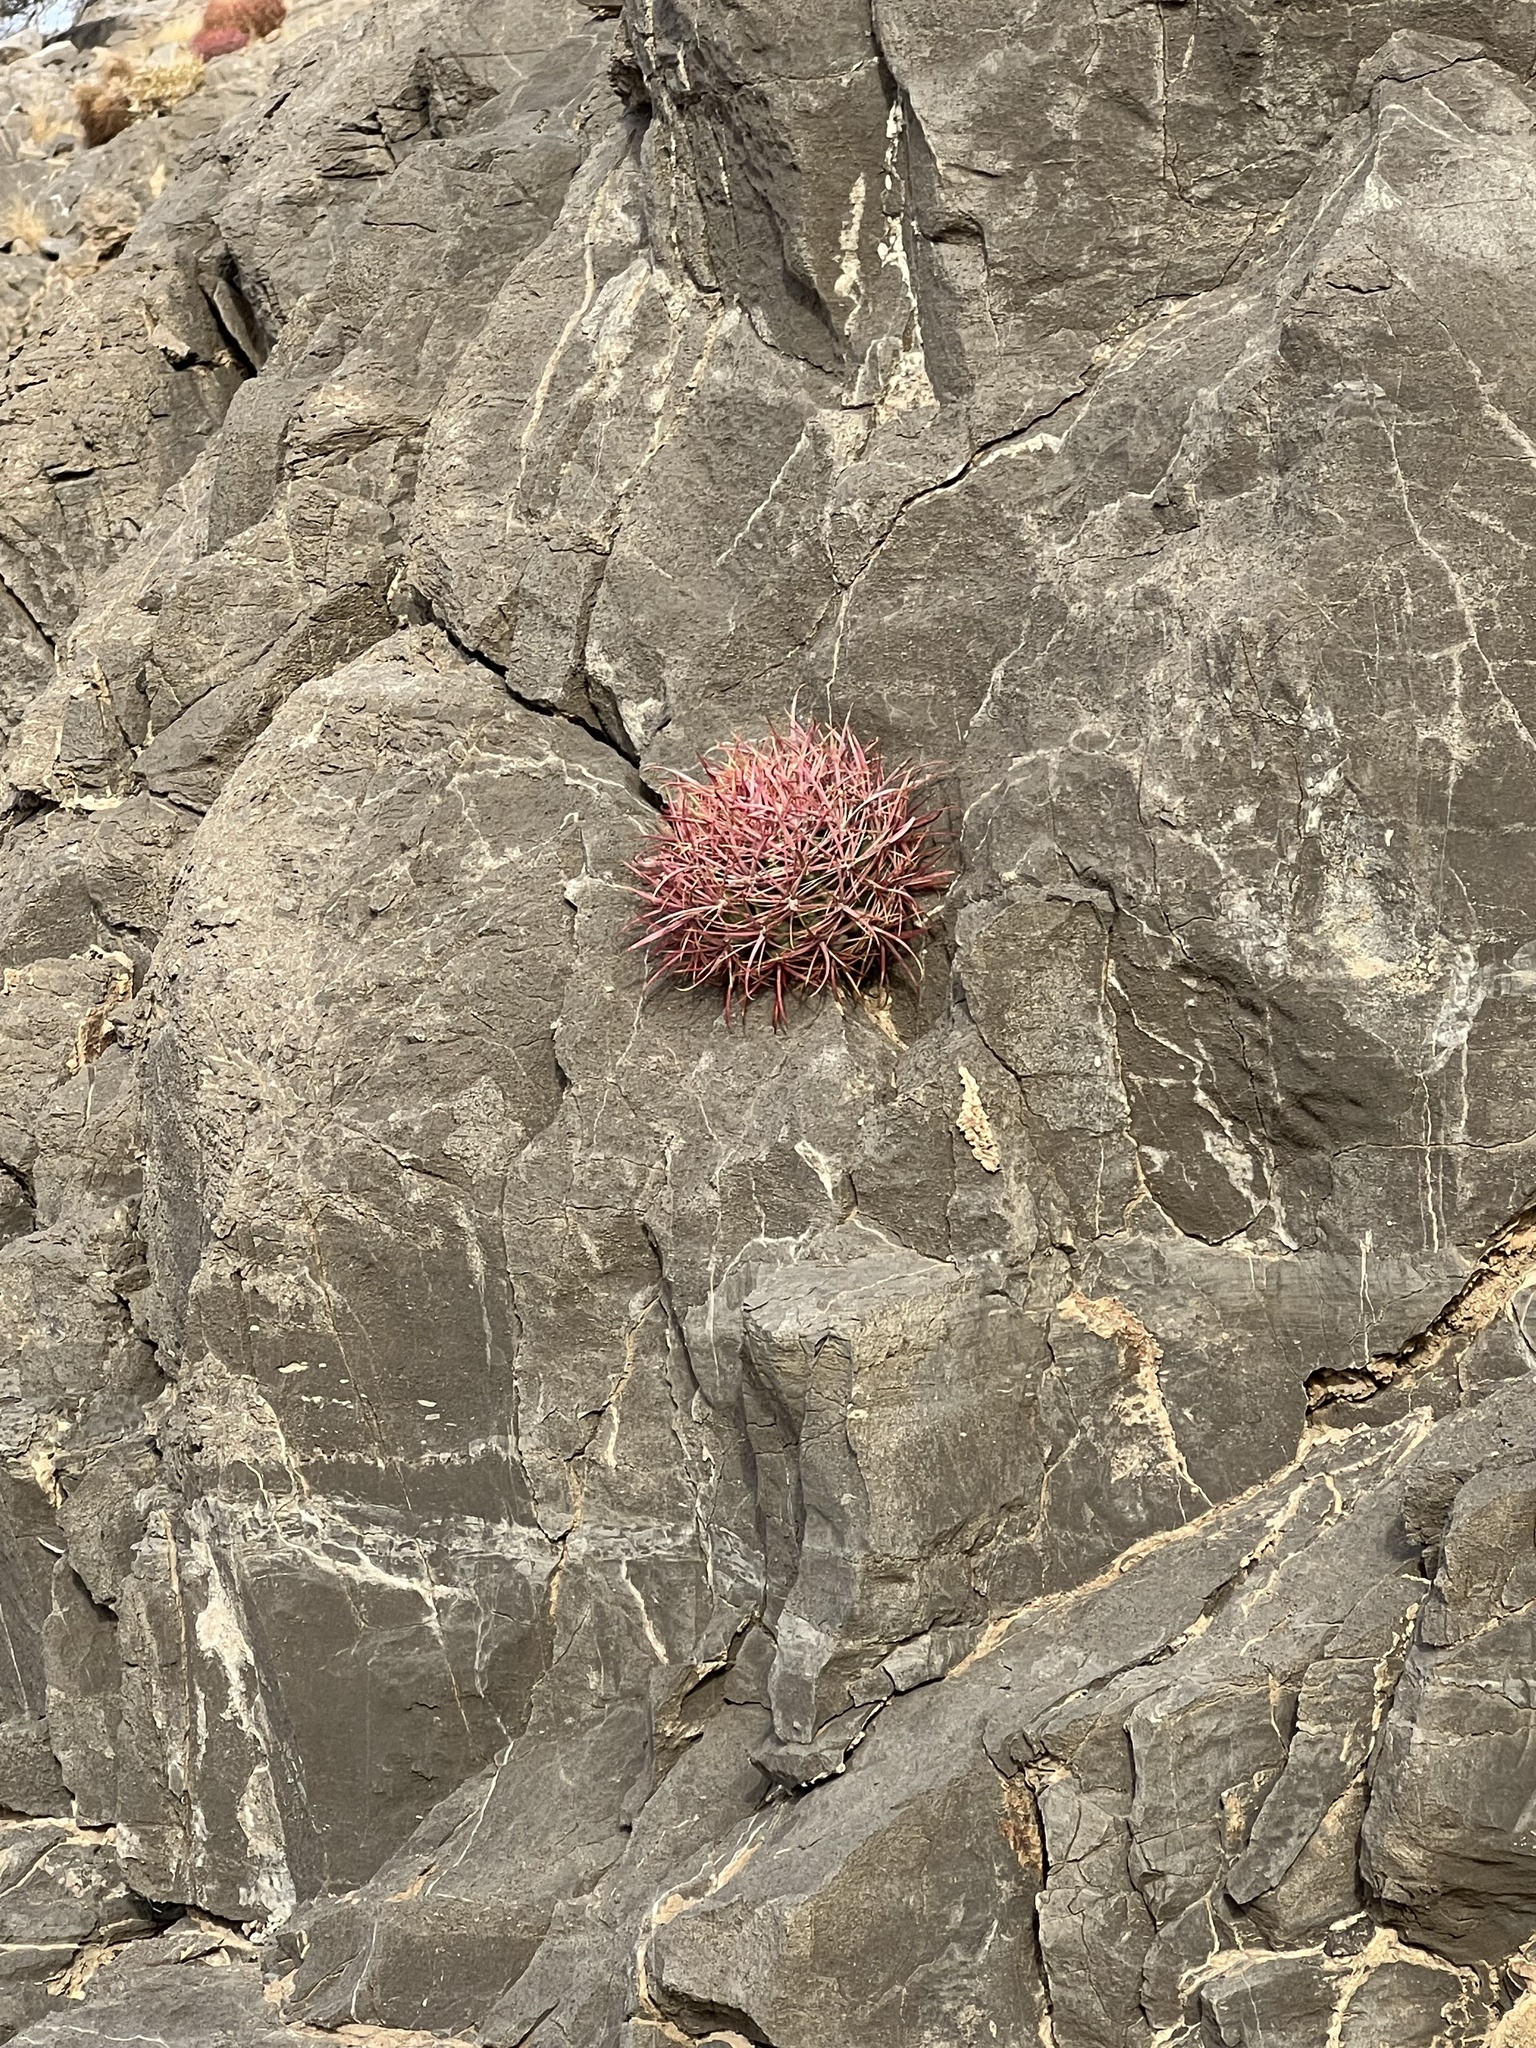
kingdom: Plantae
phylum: Tracheophyta
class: Magnoliopsida
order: Caryophyllales
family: Cactaceae
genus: Ferocactus
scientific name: Ferocactus cylindraceus
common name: California barrel cactus
